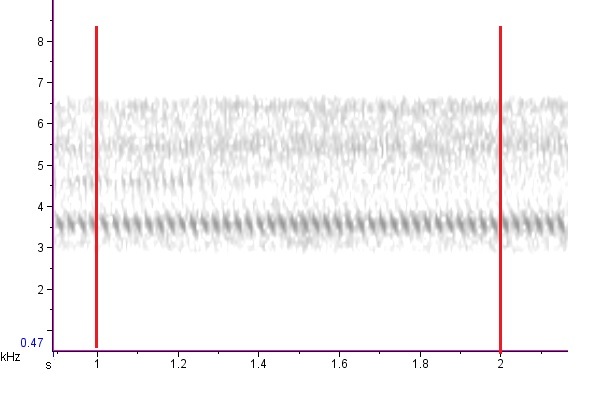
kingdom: Animalia
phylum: Arthropoda
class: Insecta
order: Orthoptera
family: Gryllidae
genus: Oecanthus
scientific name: Oecanthus quadripunctatus
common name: Four-spotted tree cricket
